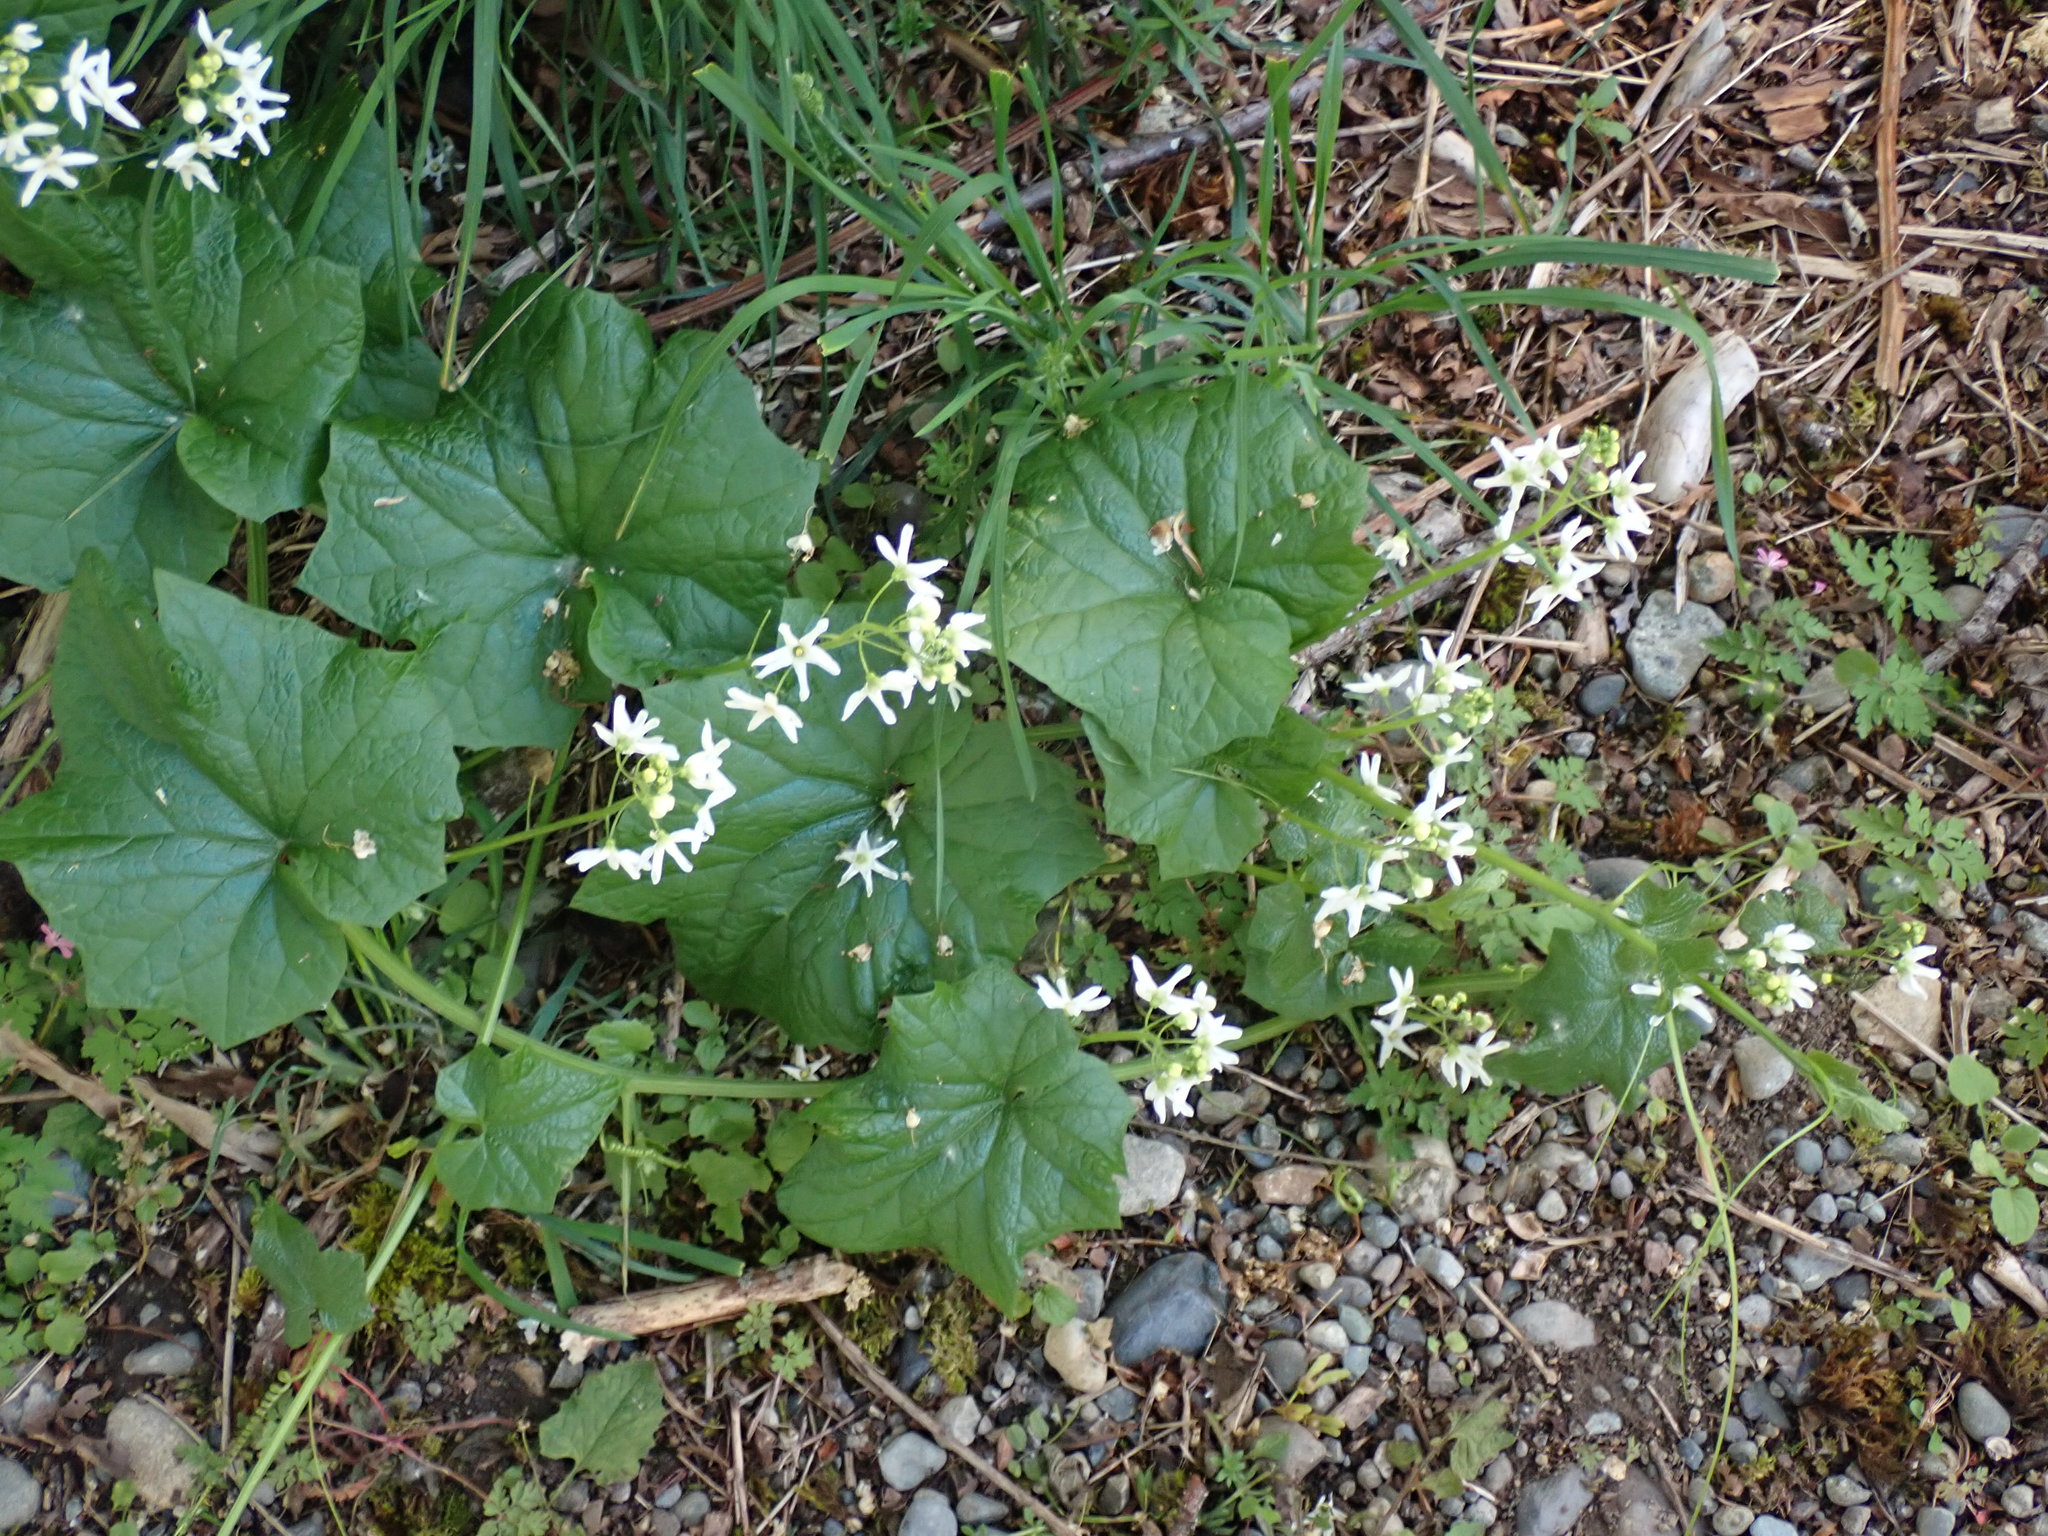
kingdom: Plantae
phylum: Tracheophyta
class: Magnoliopsida
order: Cucurbitales
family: Cucurbitaceae
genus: Marah
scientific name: Marah oregana
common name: Coastal manroot
